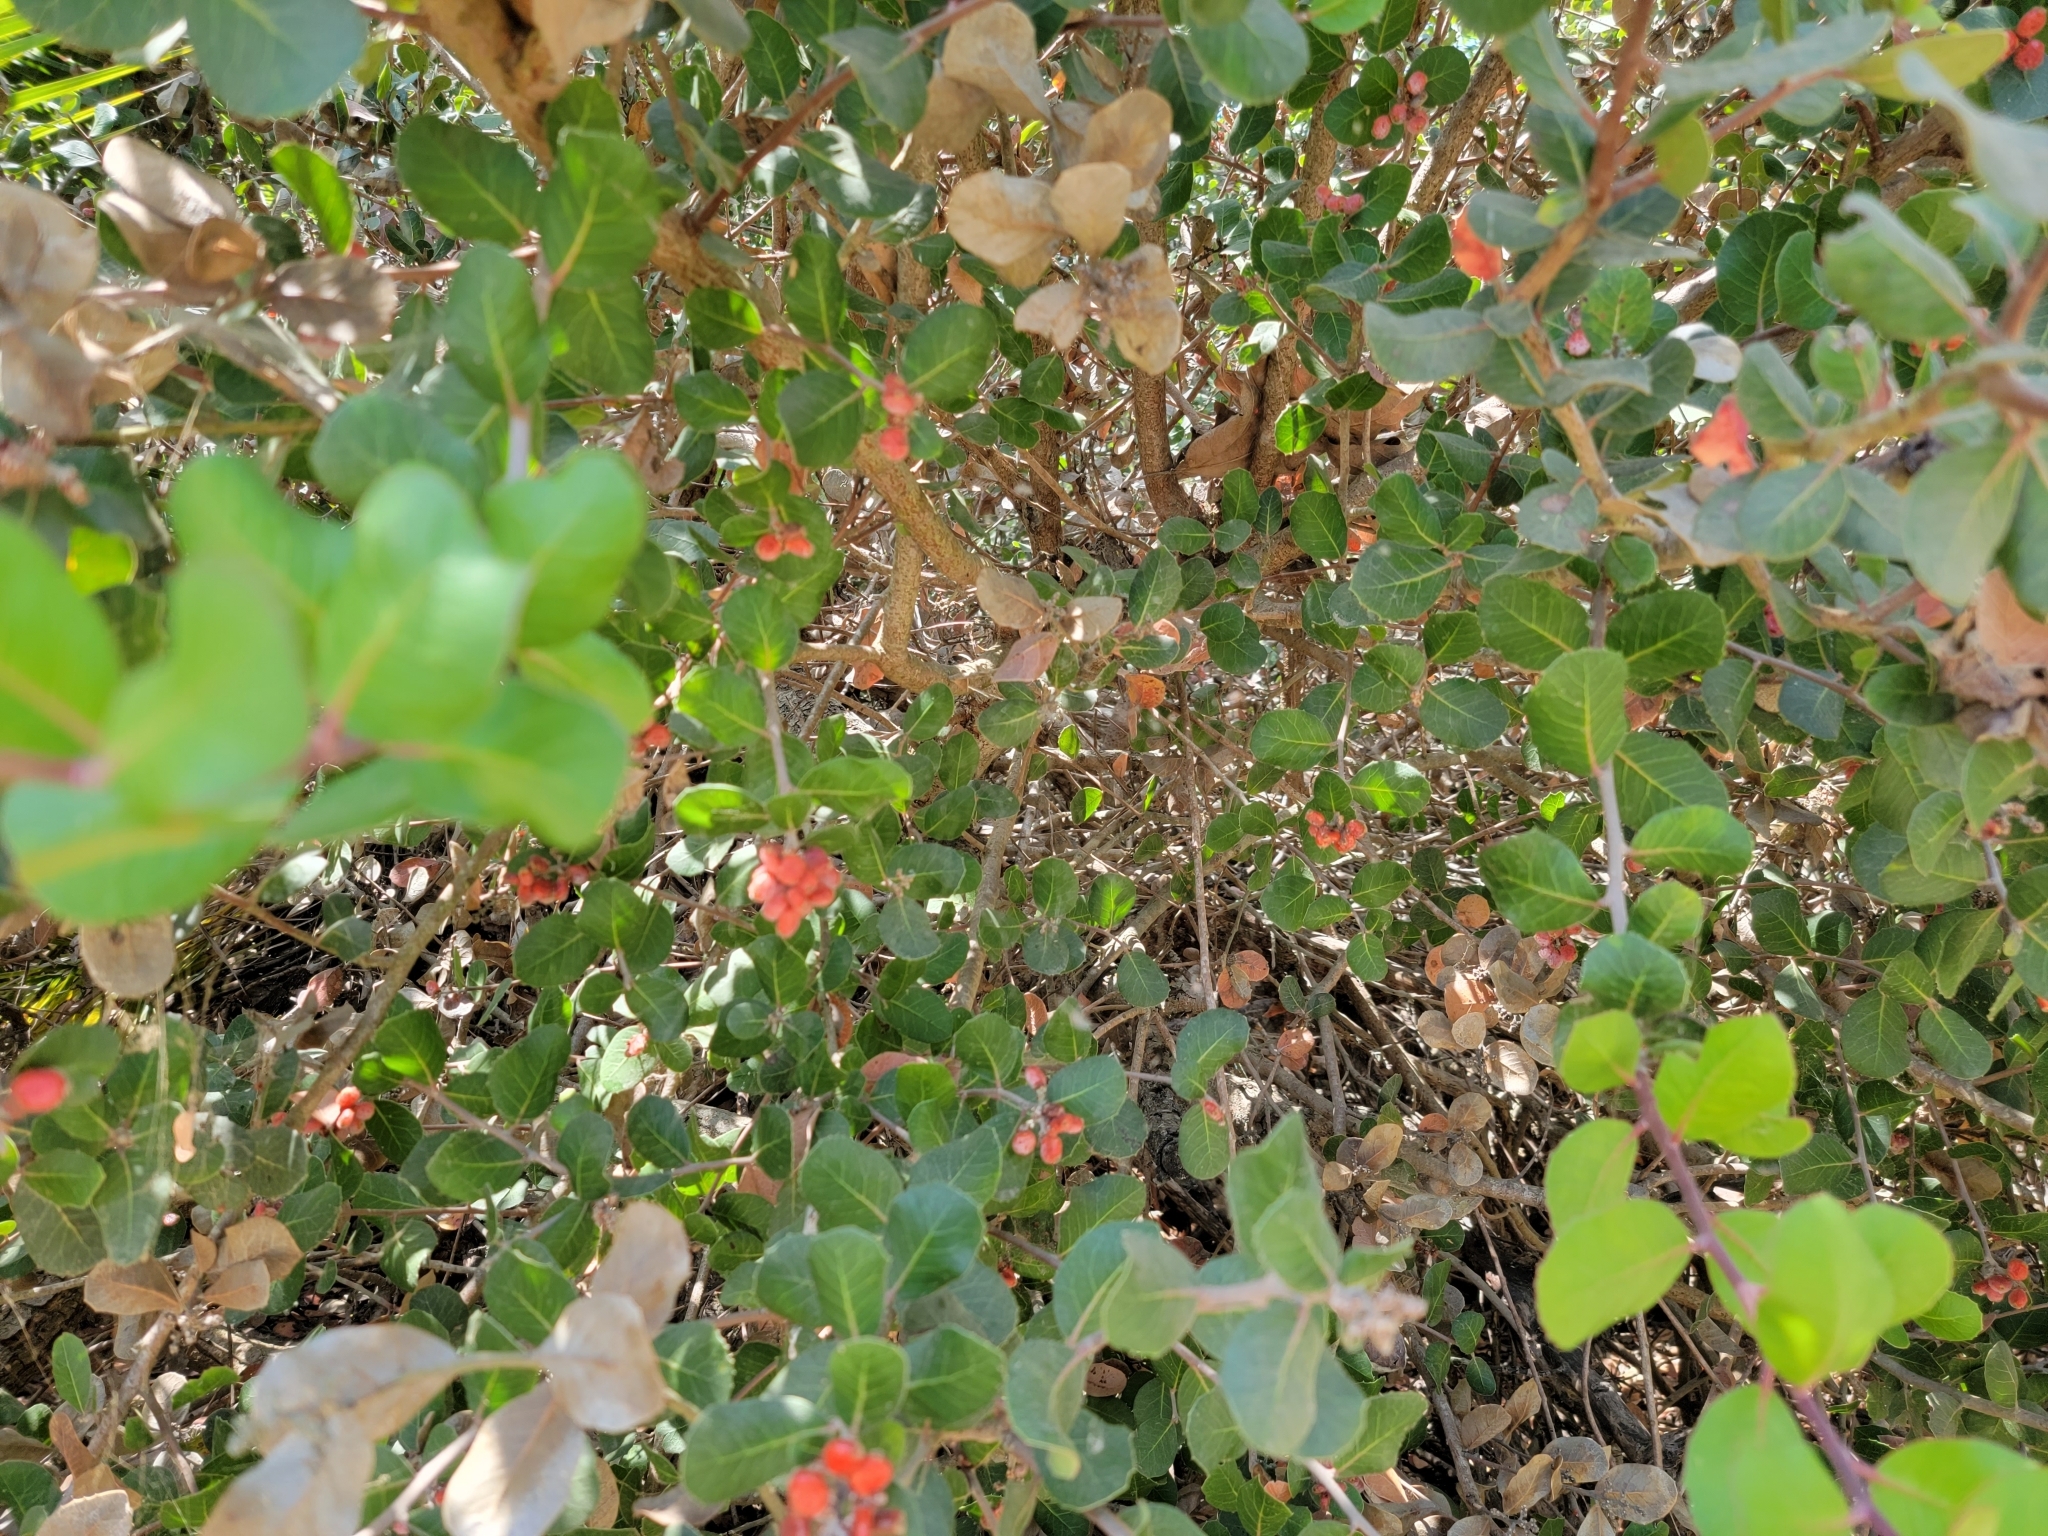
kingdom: Plantae
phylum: Tracheophyta
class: Magnoliopsida
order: Sapindales
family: Anacardiaceae
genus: Rhus
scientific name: Rhus integrifolia
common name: Lemonade sumac
